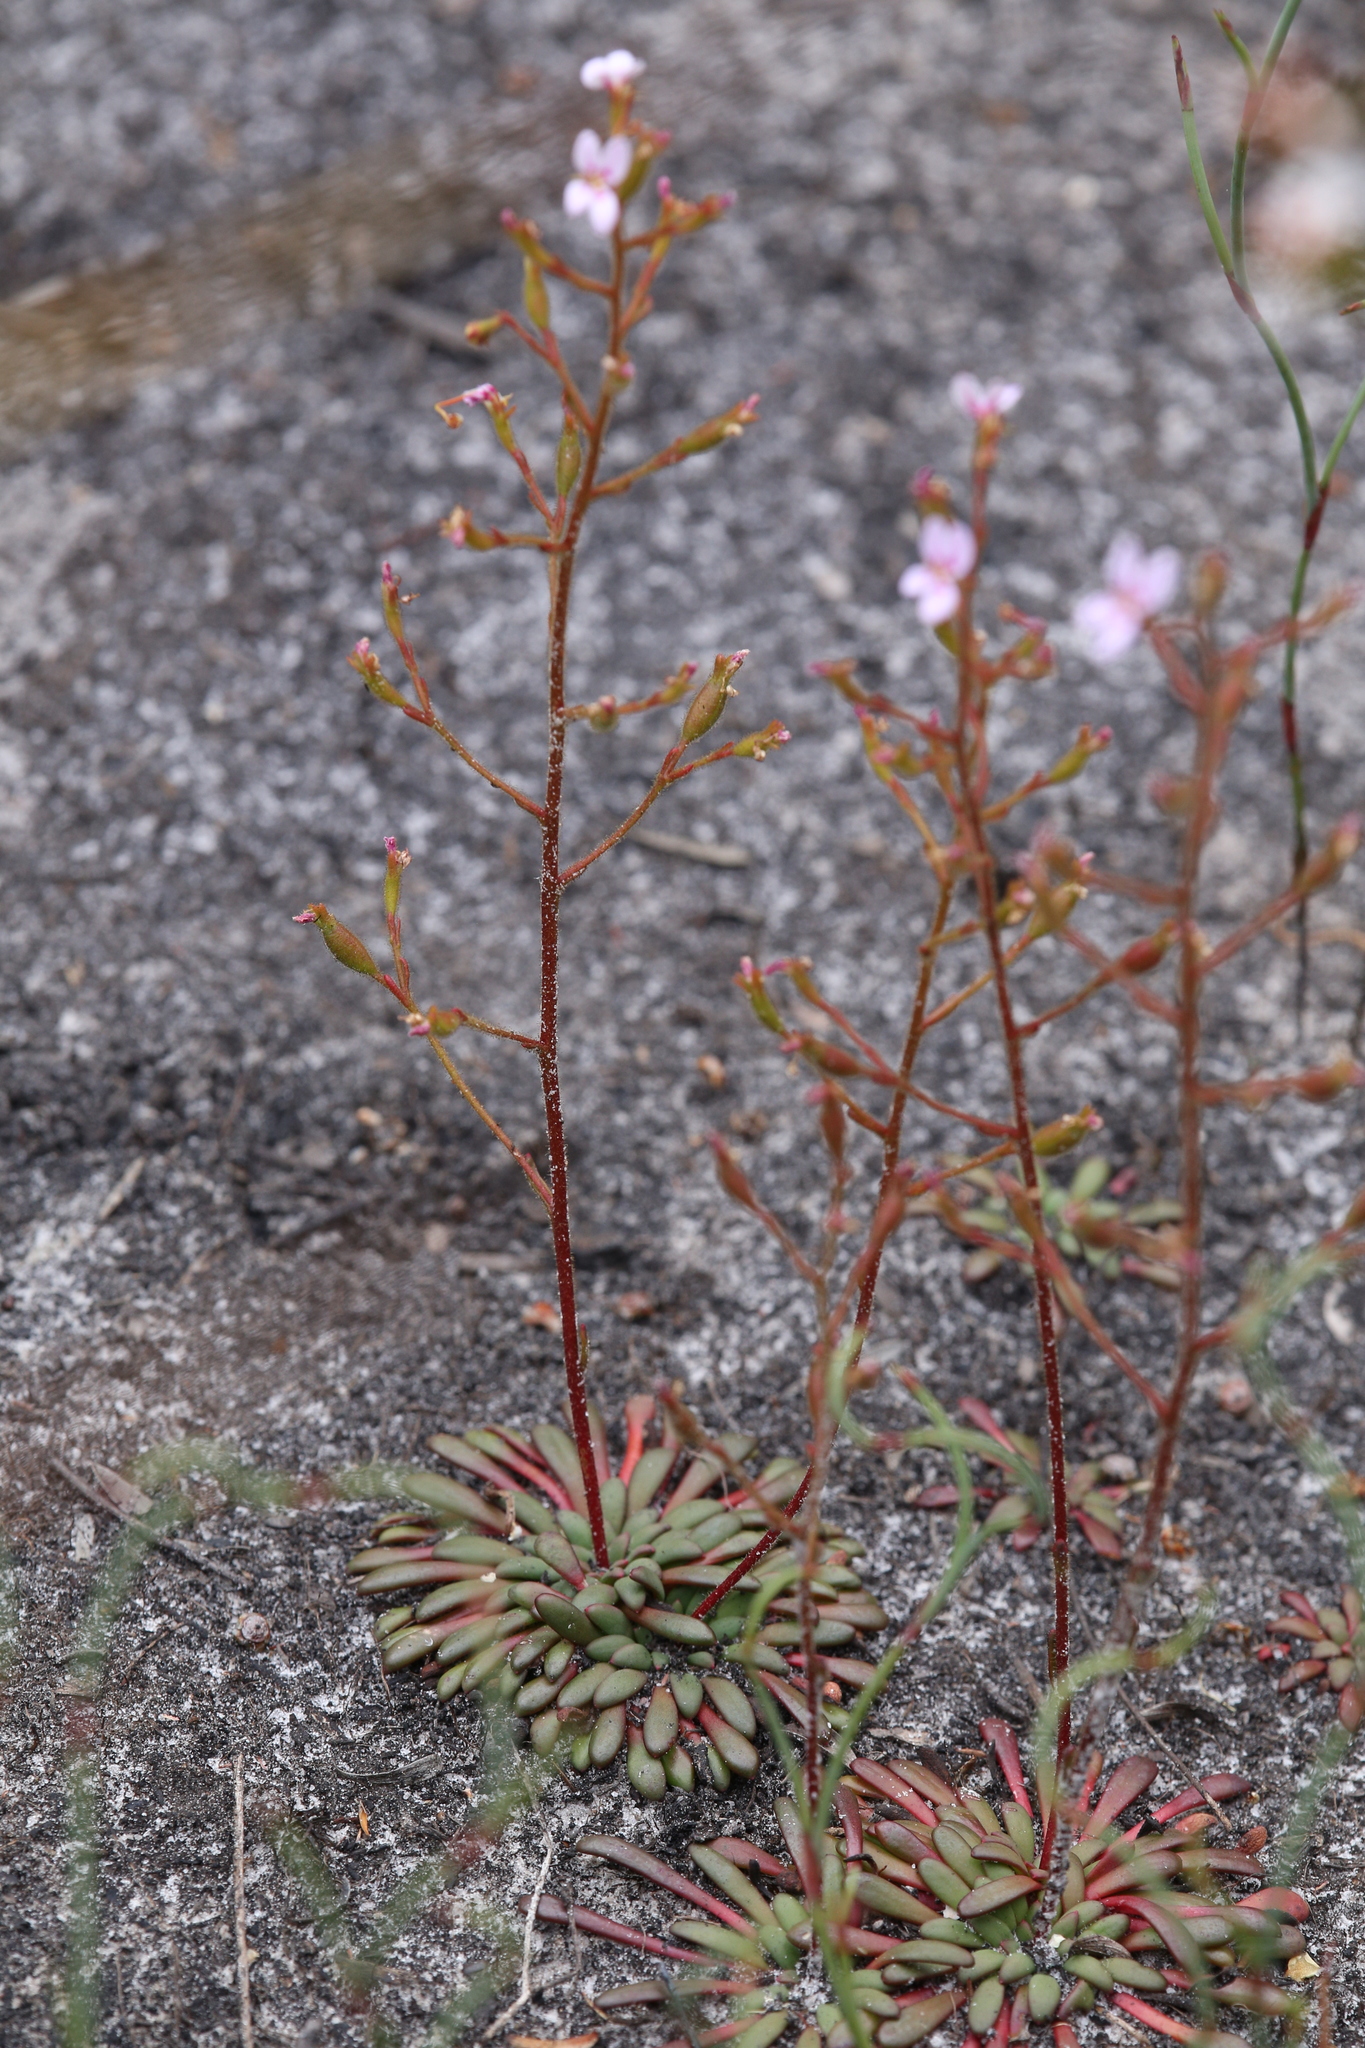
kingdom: Plantae
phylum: Tracheophyta
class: Magnoliopsida
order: Asterales
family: Stylidiaceae
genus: Stylidium
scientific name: Stylidium assimile
